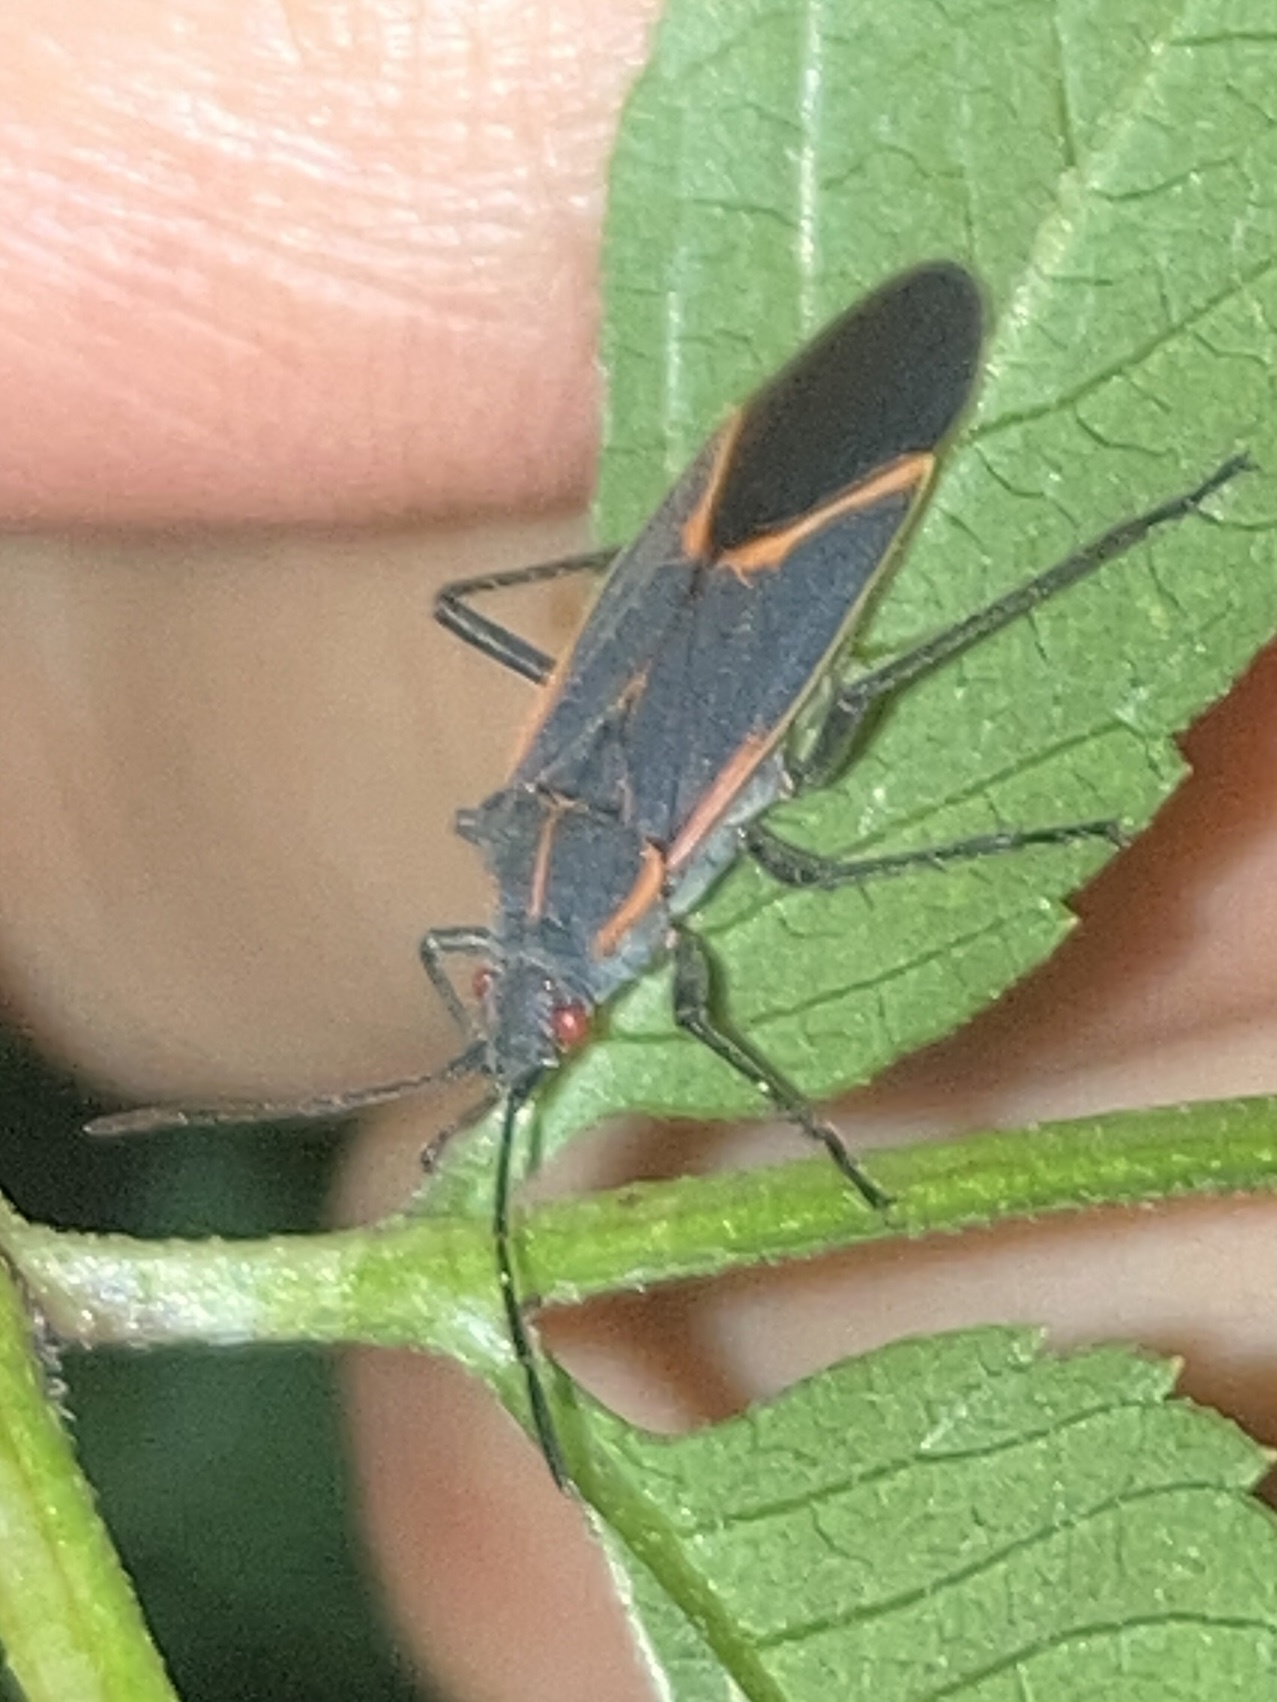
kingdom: Animalia
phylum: Arthropoda
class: Insecta
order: Hemiptera
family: Rhopalidae
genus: Boisea
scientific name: Boisea trivittata
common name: Boxelder bug
